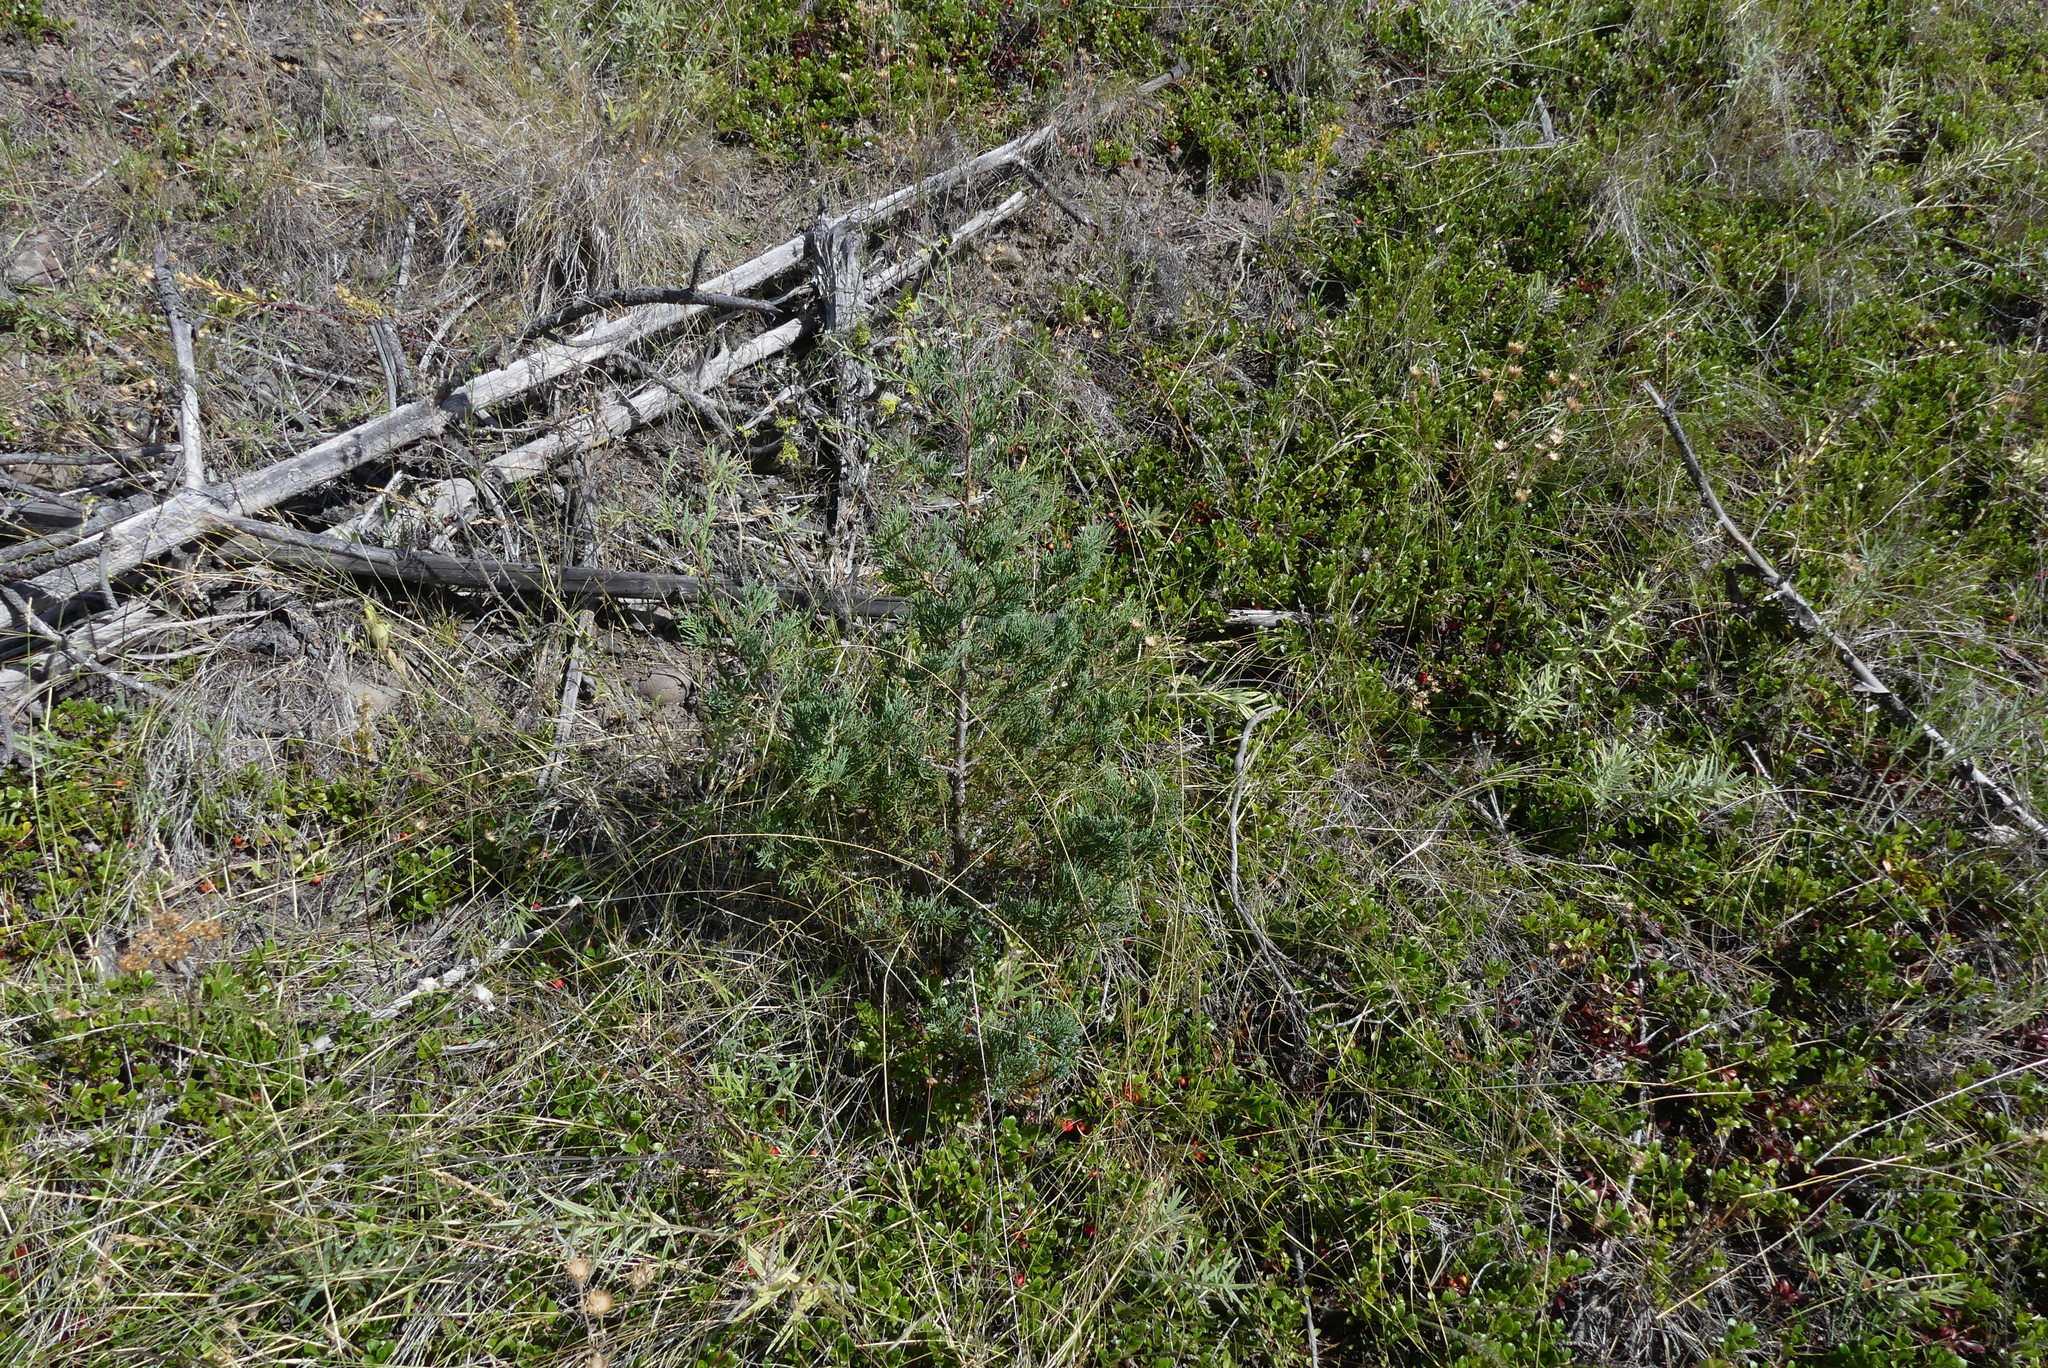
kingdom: Plantae
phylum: Tracheophyta
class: Pinopsida
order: Pinales
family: Cupressaceae
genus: Juniperus
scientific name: Juniperus scopulorum
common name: Rocky mountain juniper
